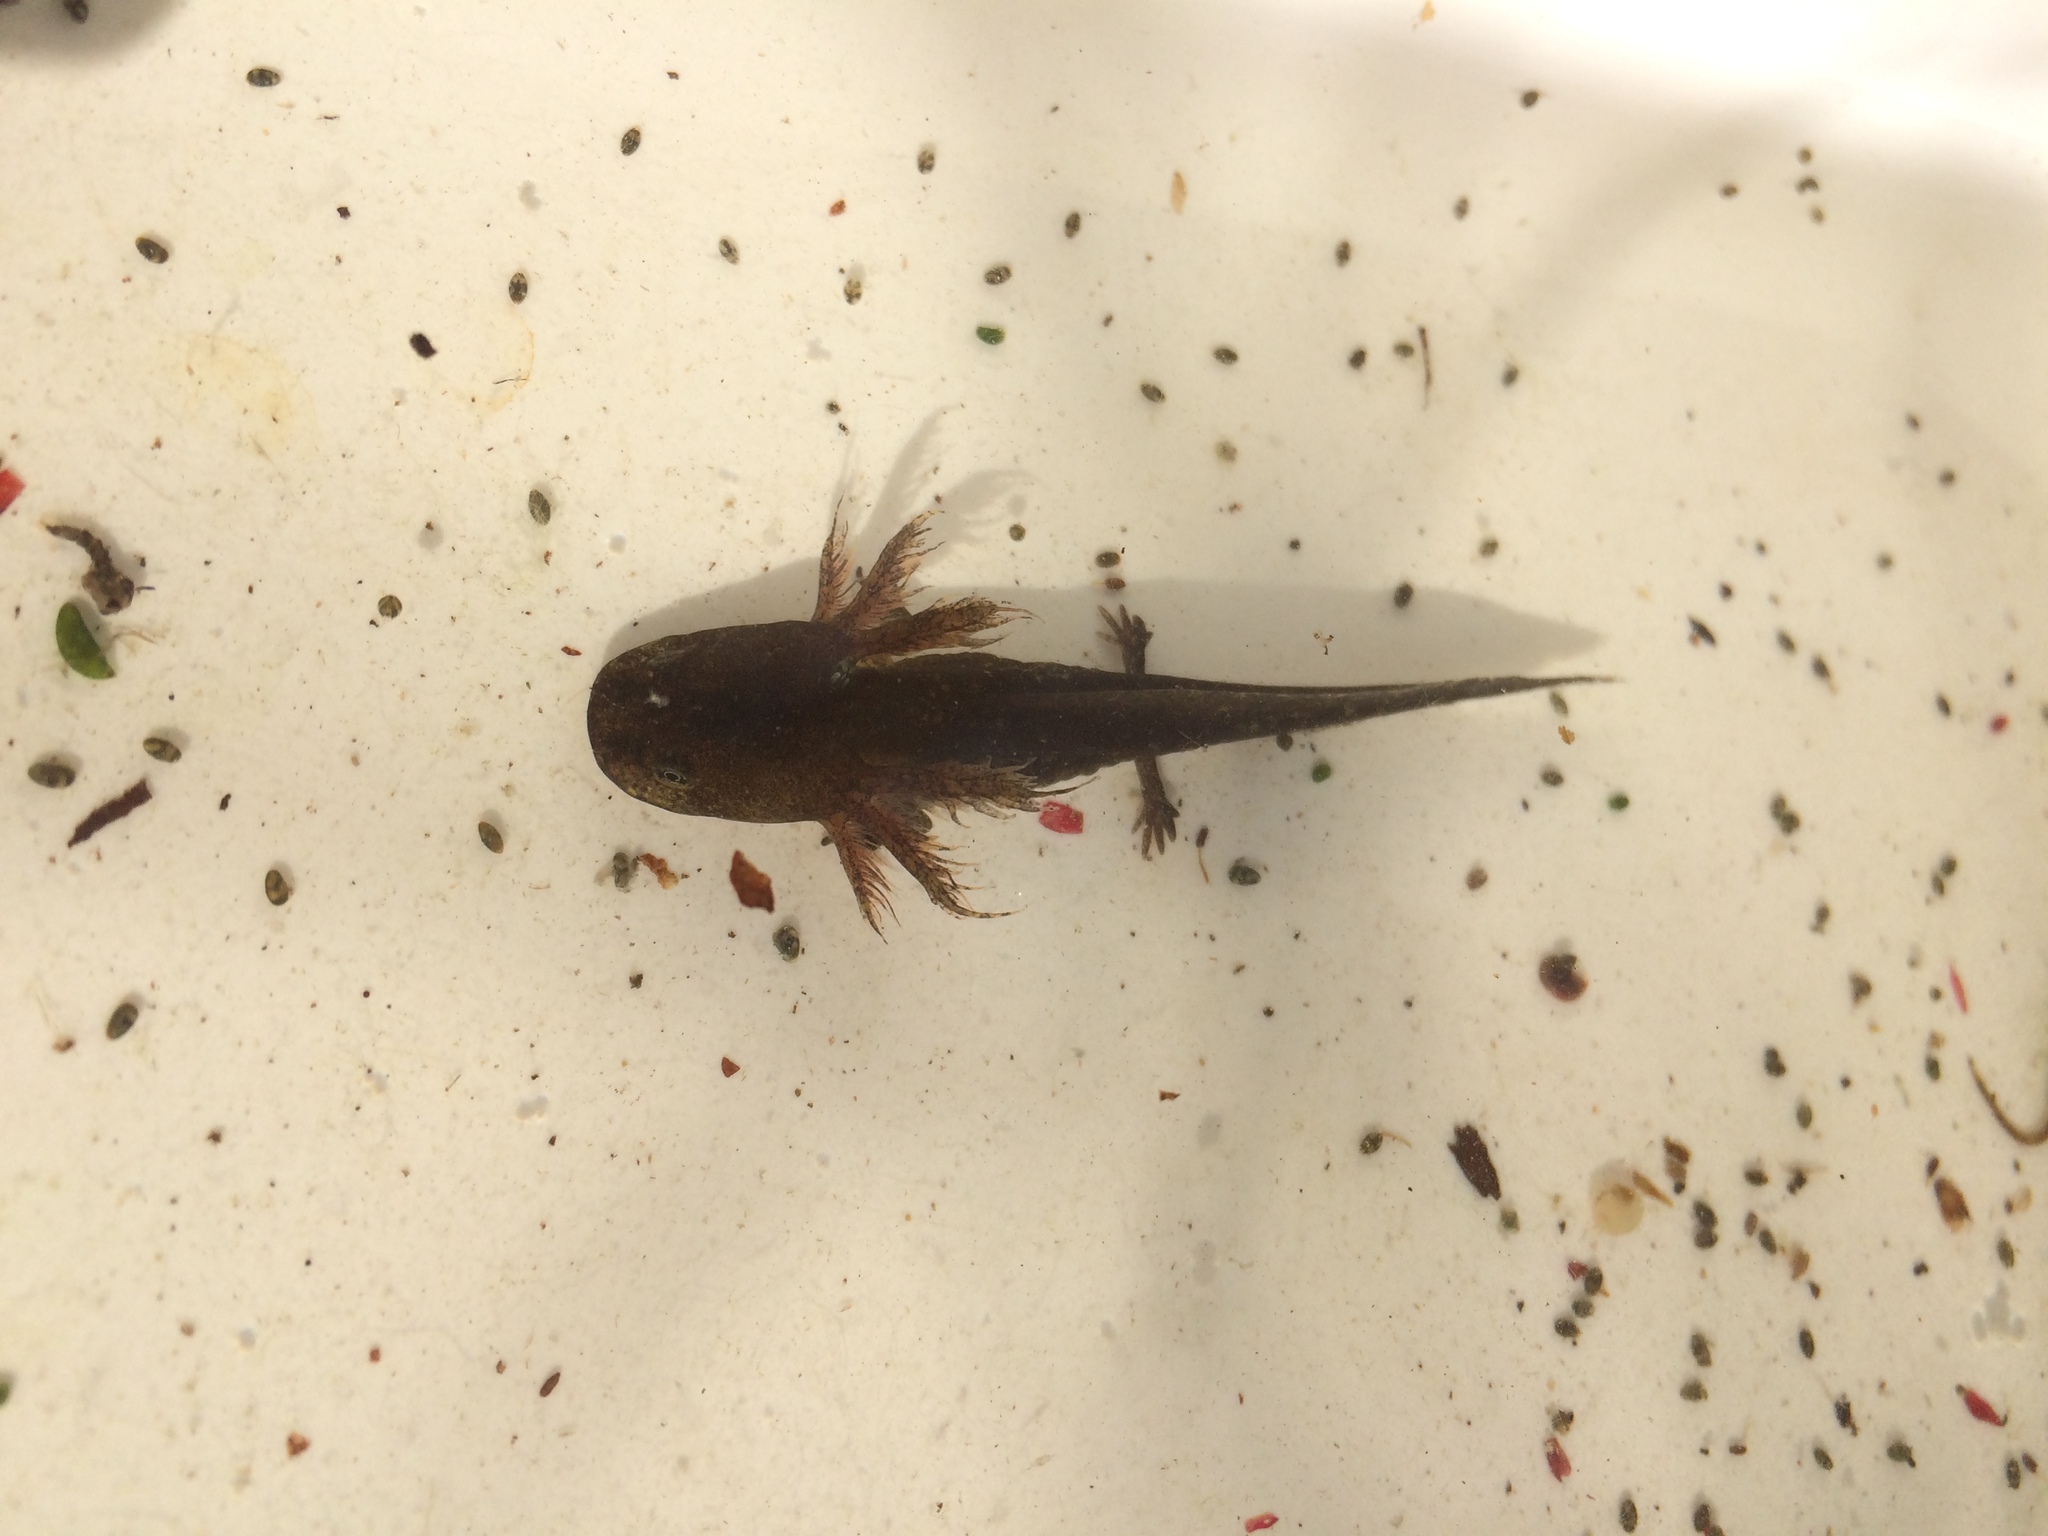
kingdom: Animalia
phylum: Chordata
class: Amphibia
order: Caudata
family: Ambystomatidae
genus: Ambystoma
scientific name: Ambystoma opacum
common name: Marbled salamander
